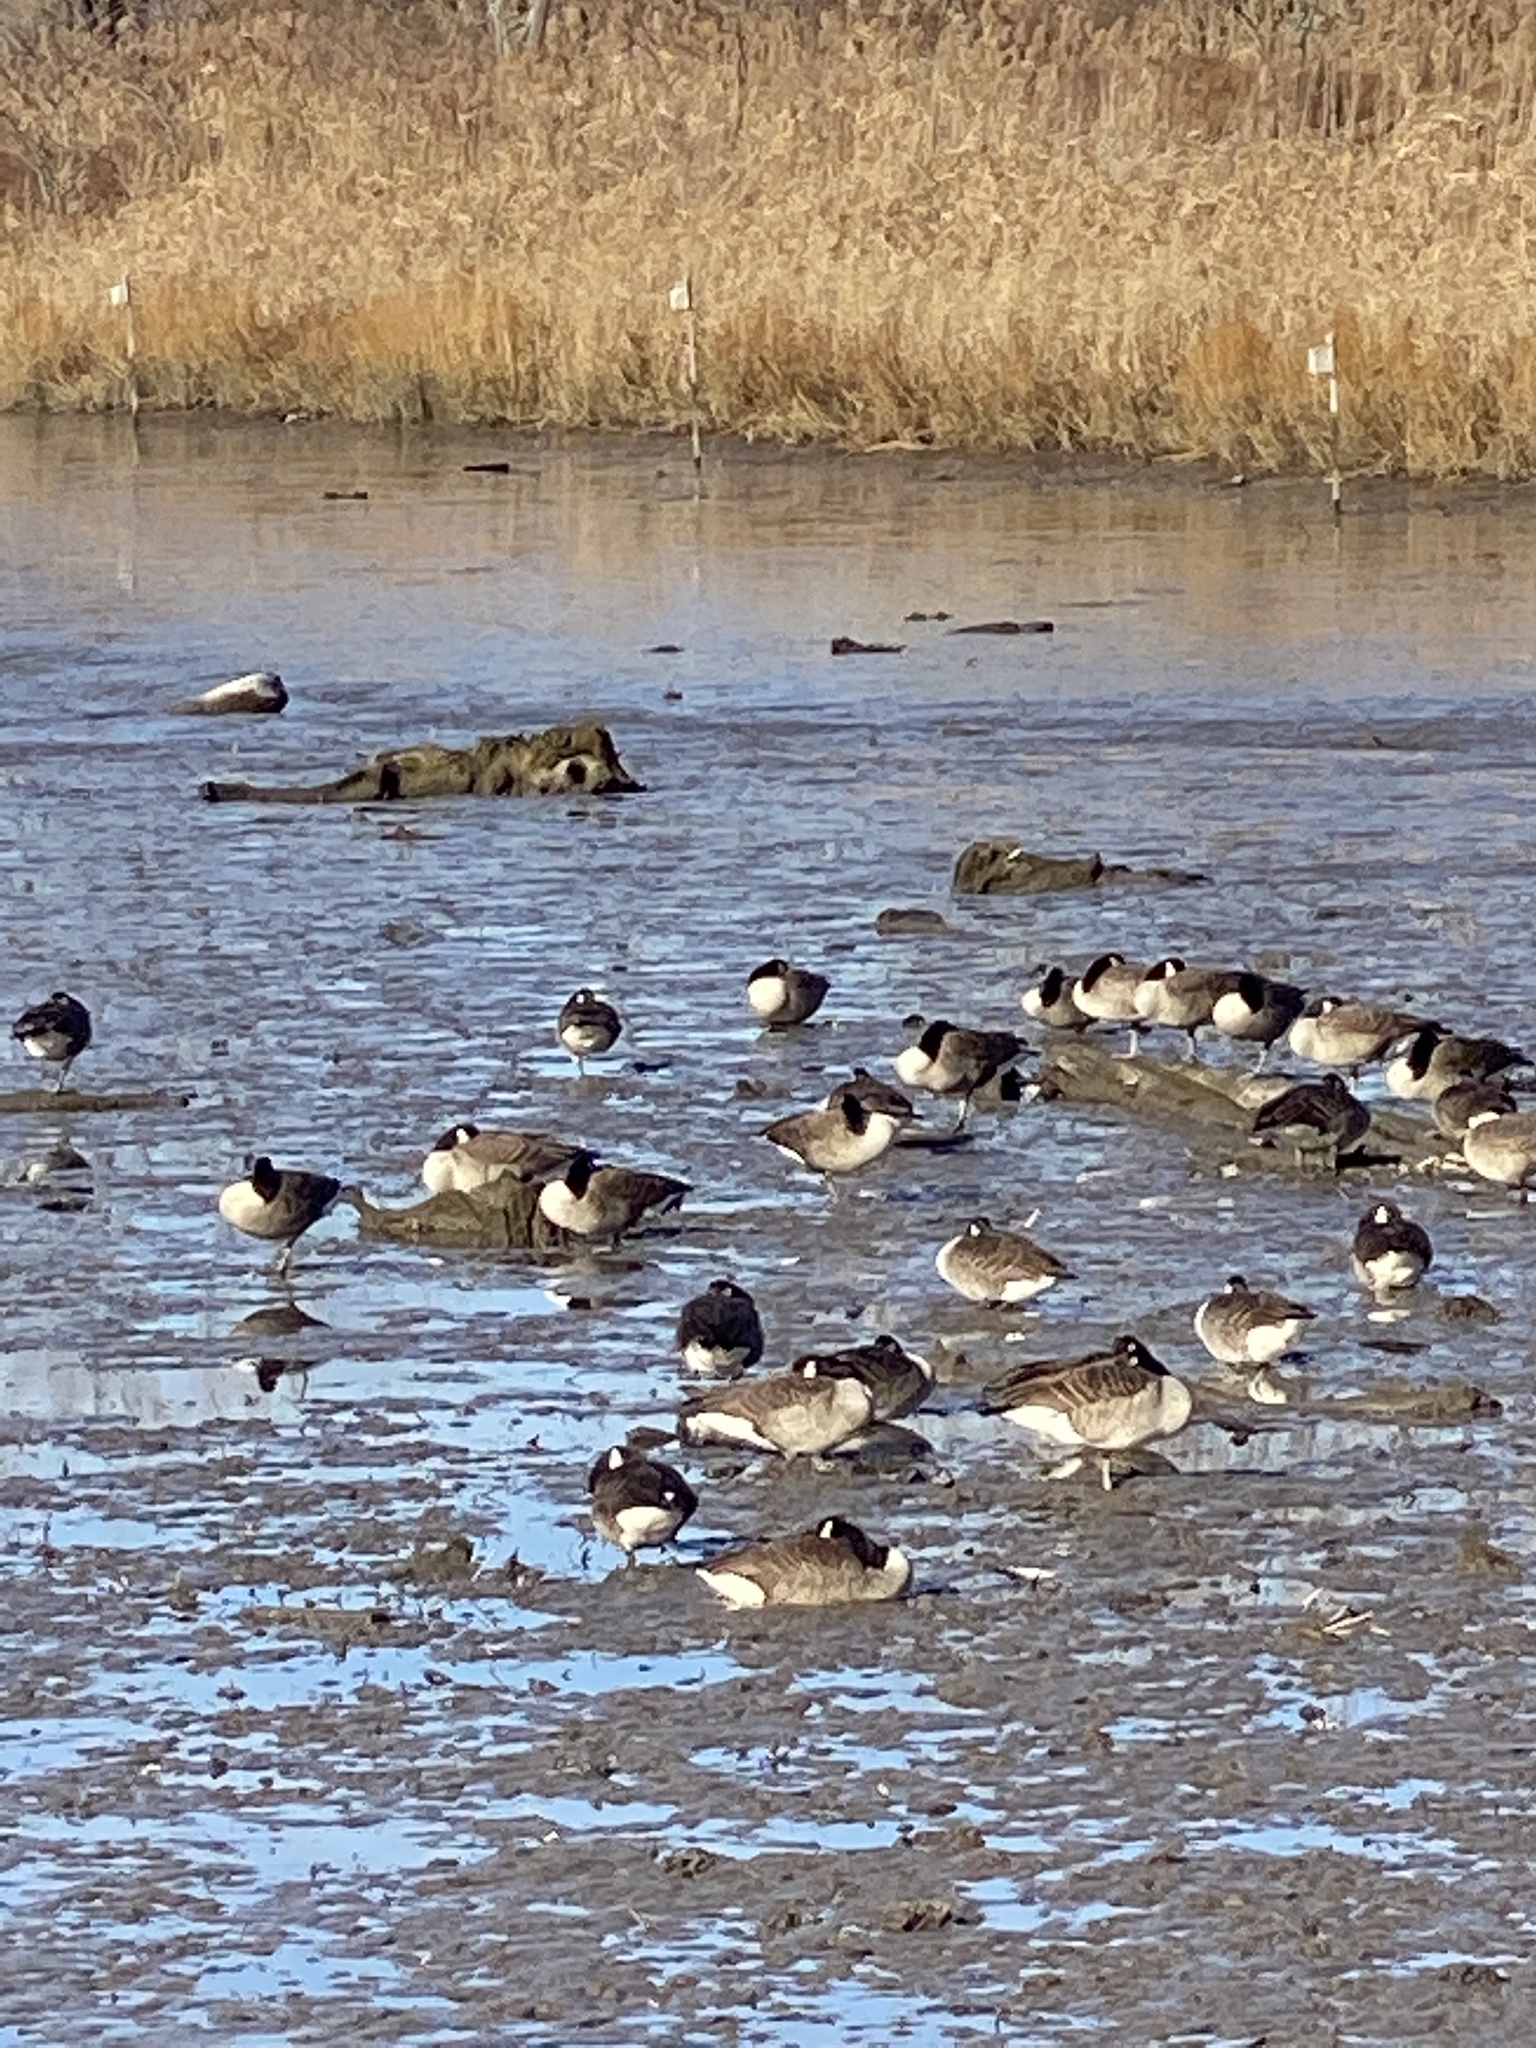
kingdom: Animalia
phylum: Chordata
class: Aves
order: Anseriformes
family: Anatidae
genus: Branta
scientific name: Branta canadensis
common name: Canada goose
